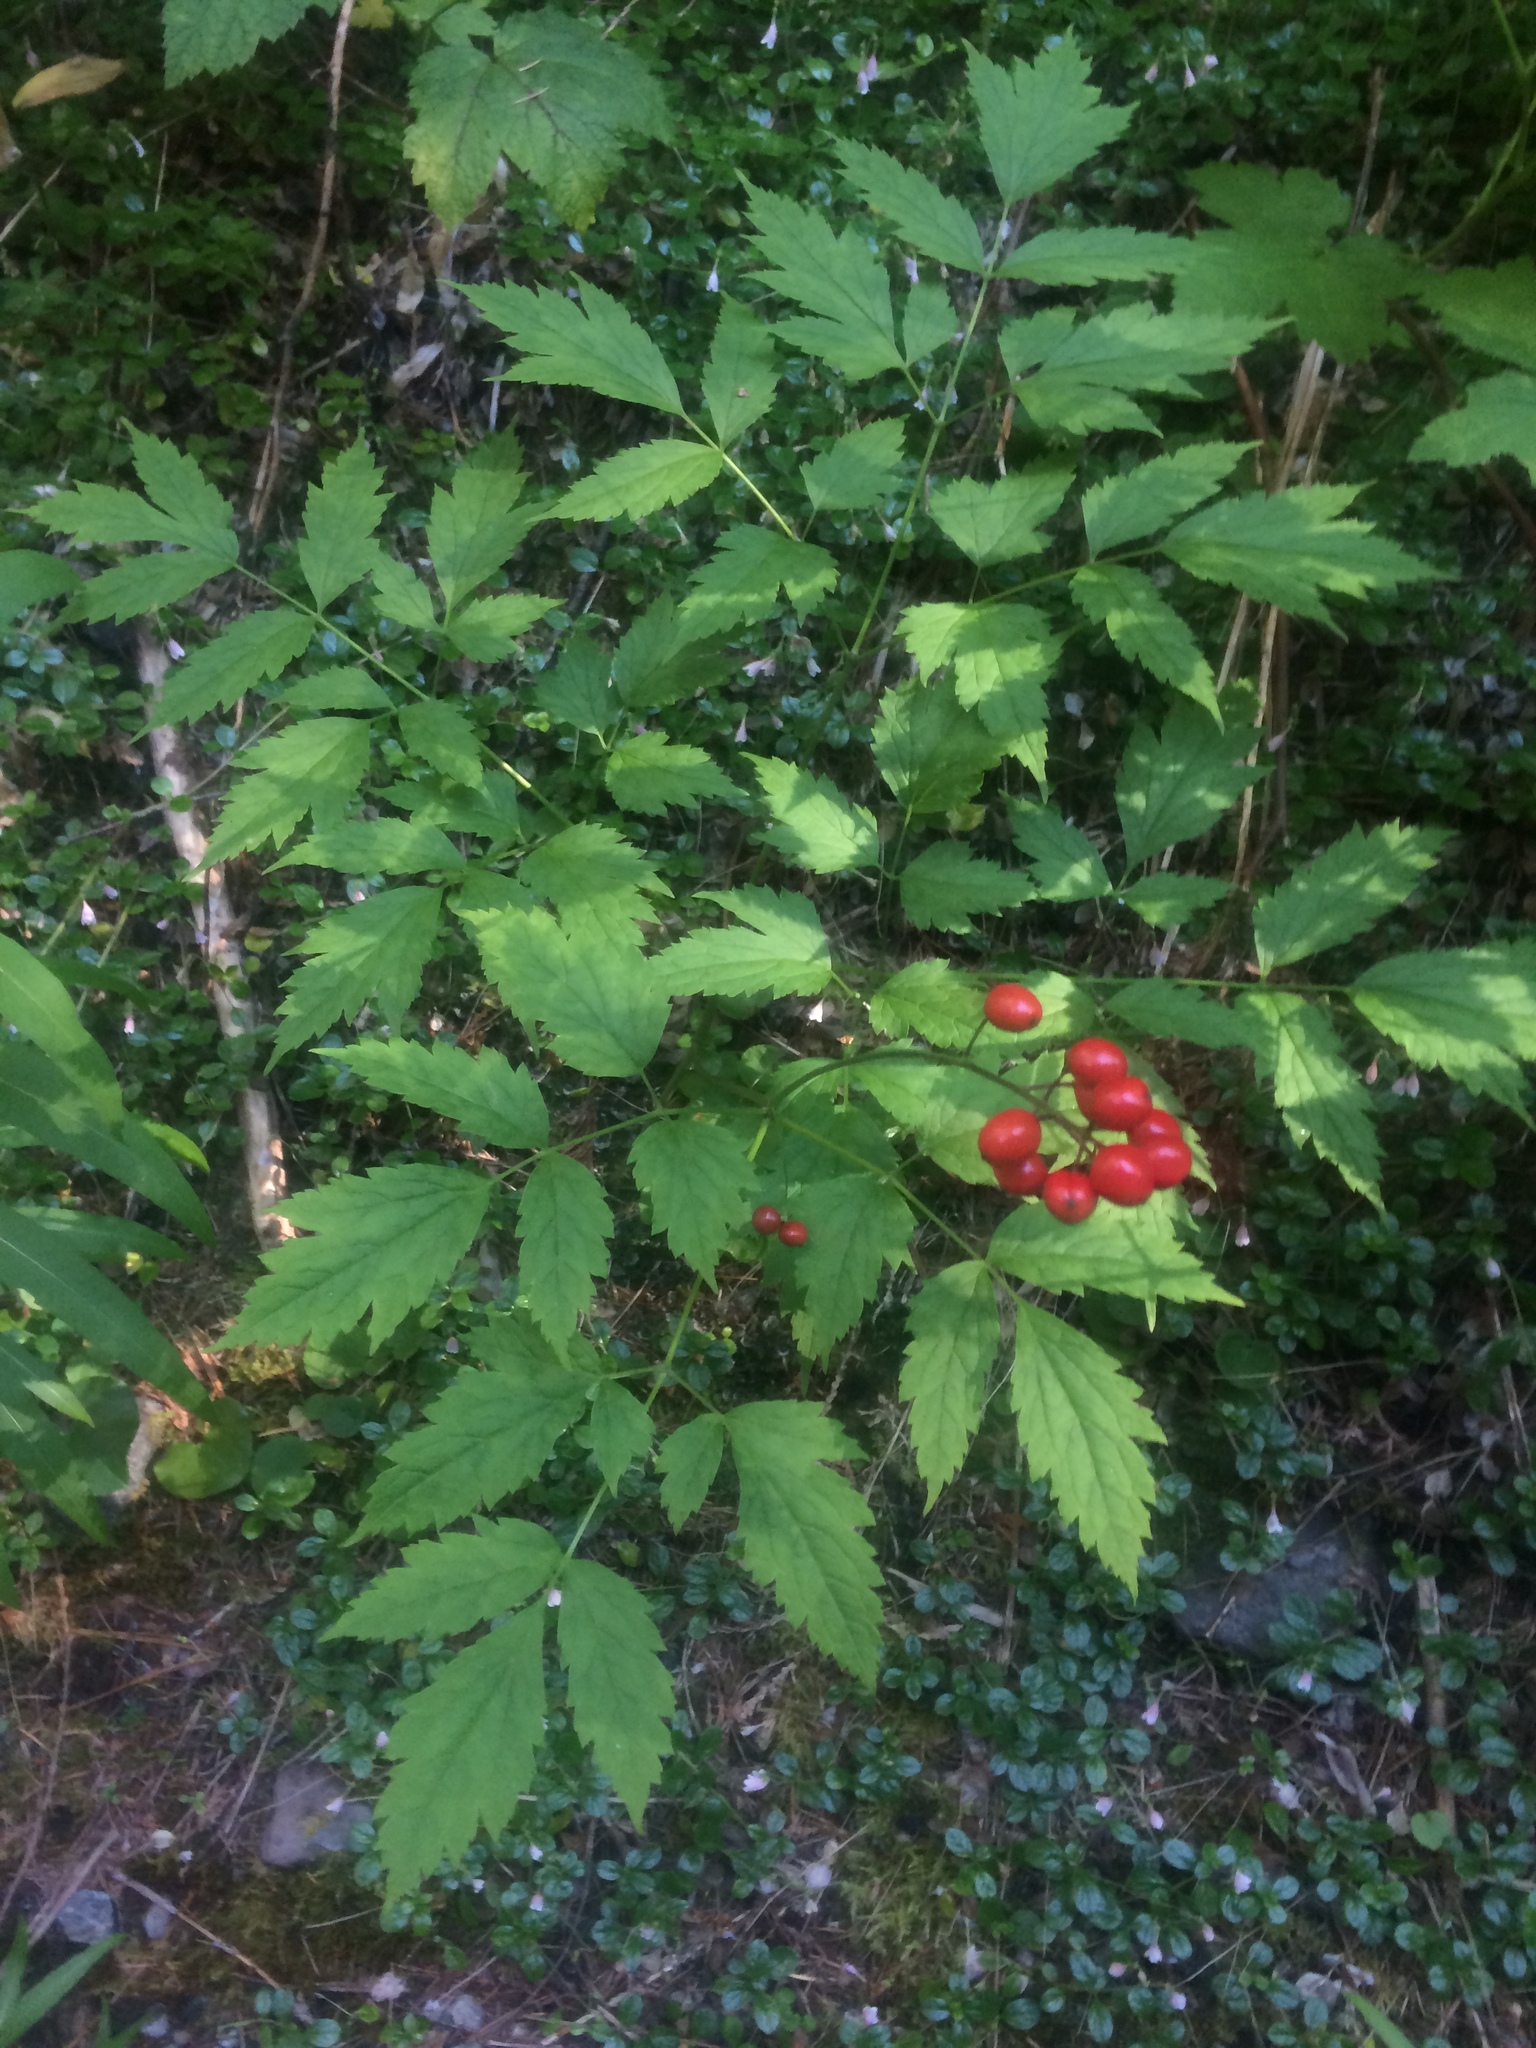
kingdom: Plantae
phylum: Tracheophyta
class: Magnoliopsida
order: Ranunculales
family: Ranunculaceae
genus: Actaea
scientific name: Actaea rubra
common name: Red baneberry
